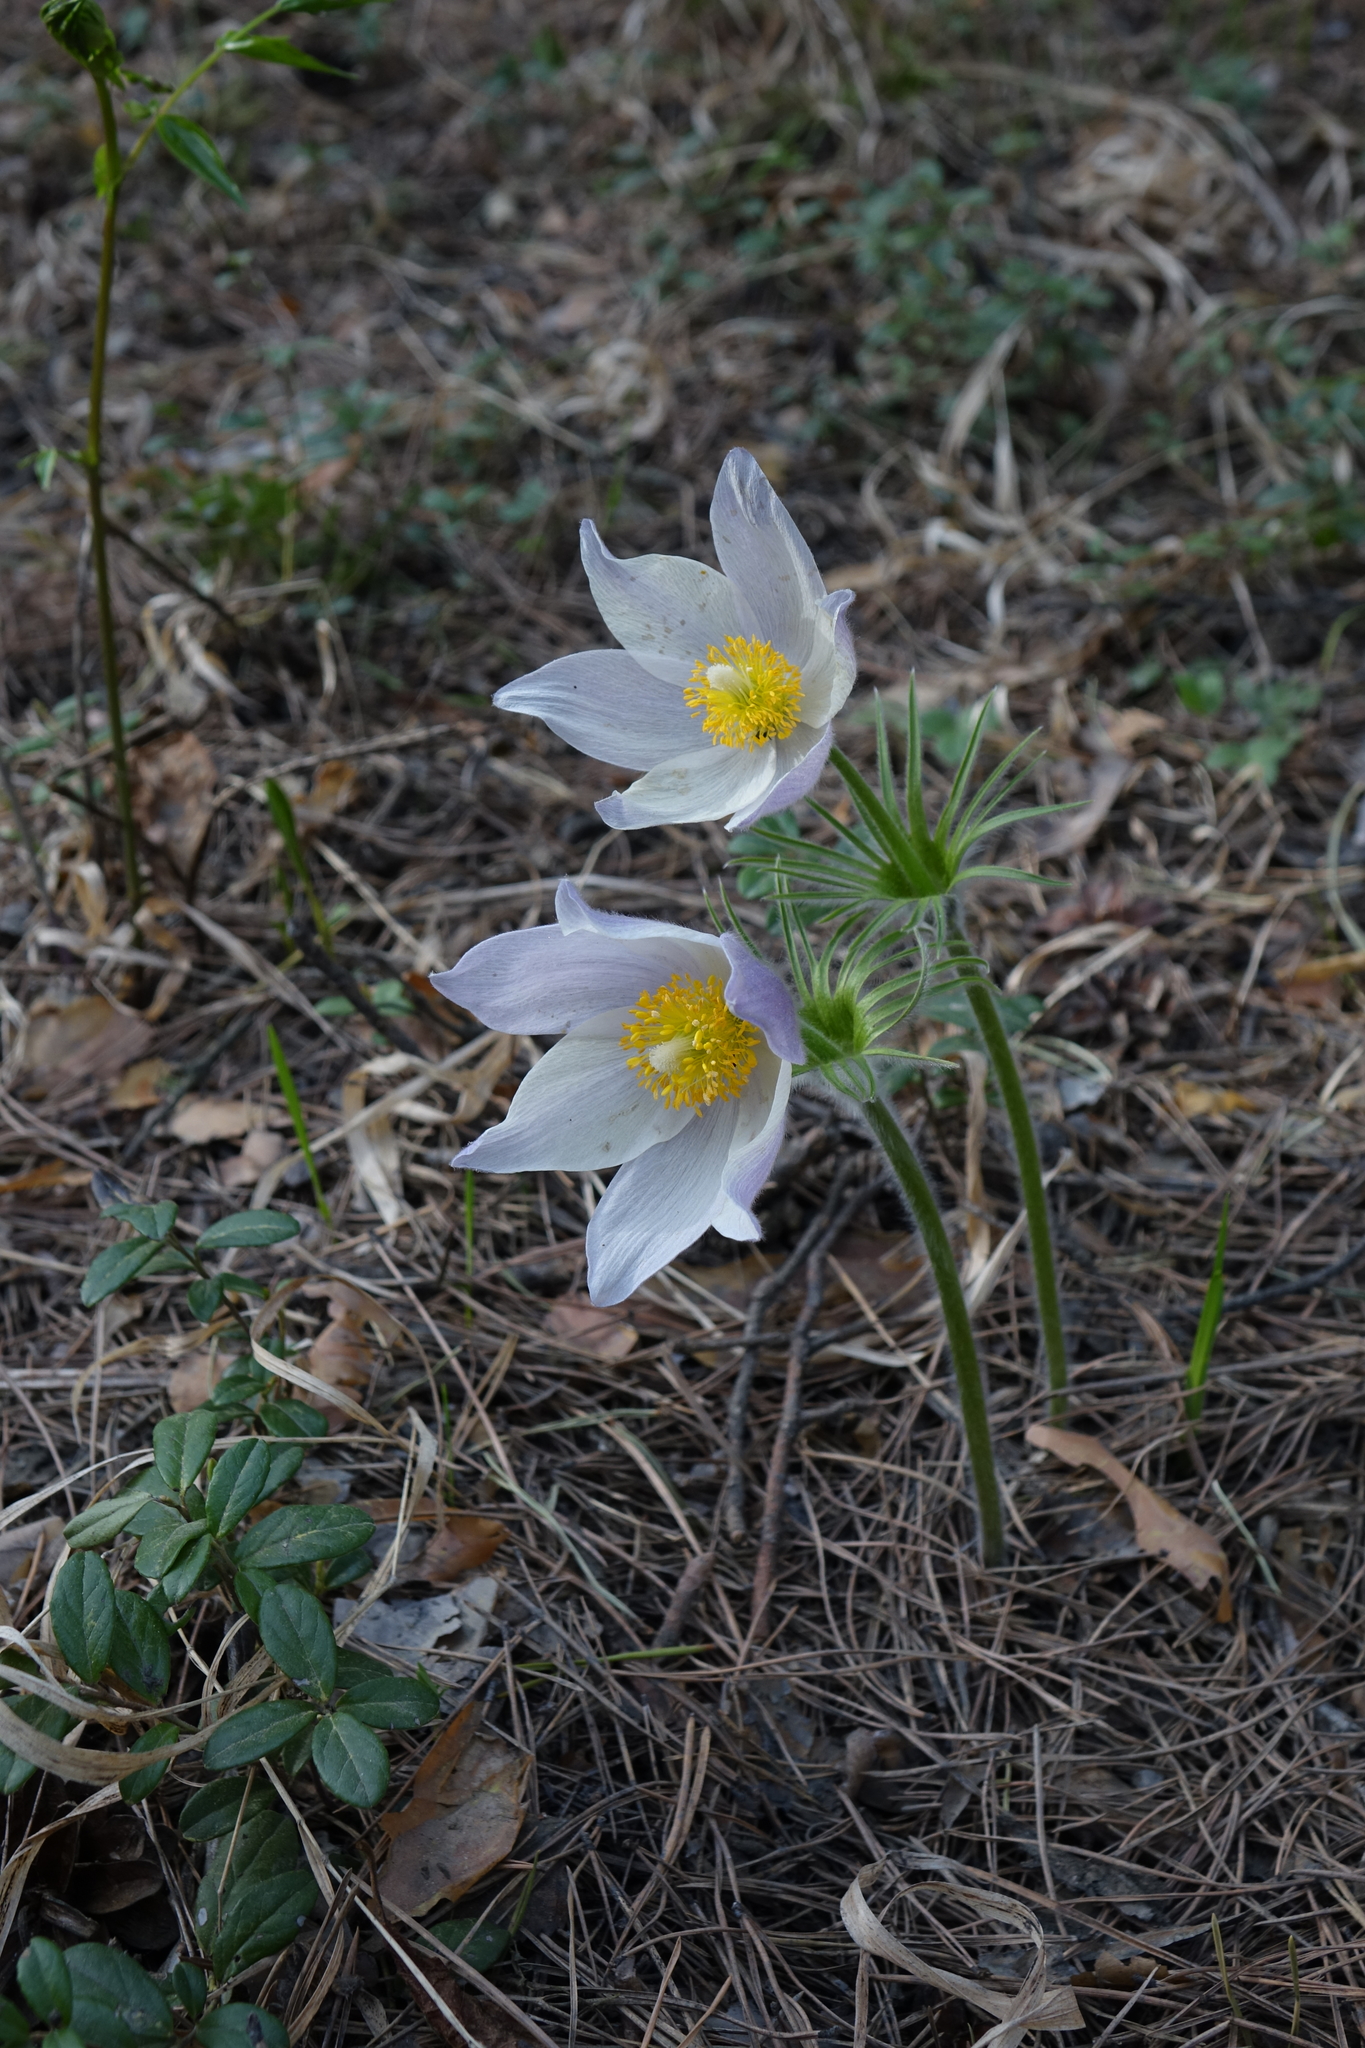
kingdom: Plantae
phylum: Tracheophyta
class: Magnoliopsida
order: Ranunculales
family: Ranunculaceae
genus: Pulsatilla
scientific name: Pulsatilla patens
